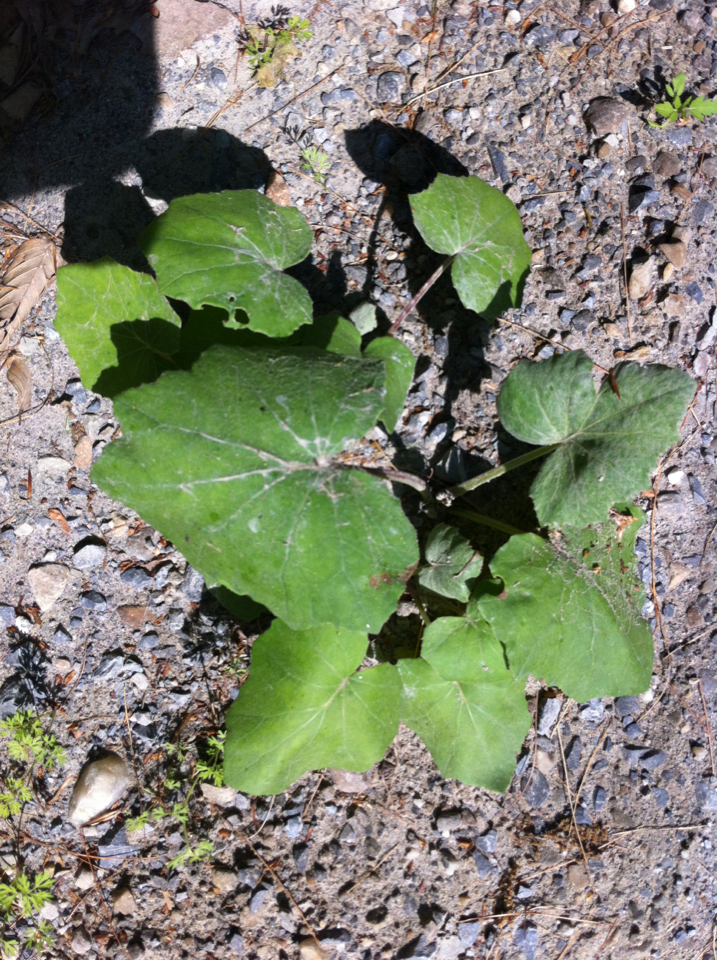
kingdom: Plantae
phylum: Tracheophyta
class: Magnoliopsida
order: Asterales
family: Asteraceae
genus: Tussilago
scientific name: Tussilago farfara
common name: Coltsfoot
